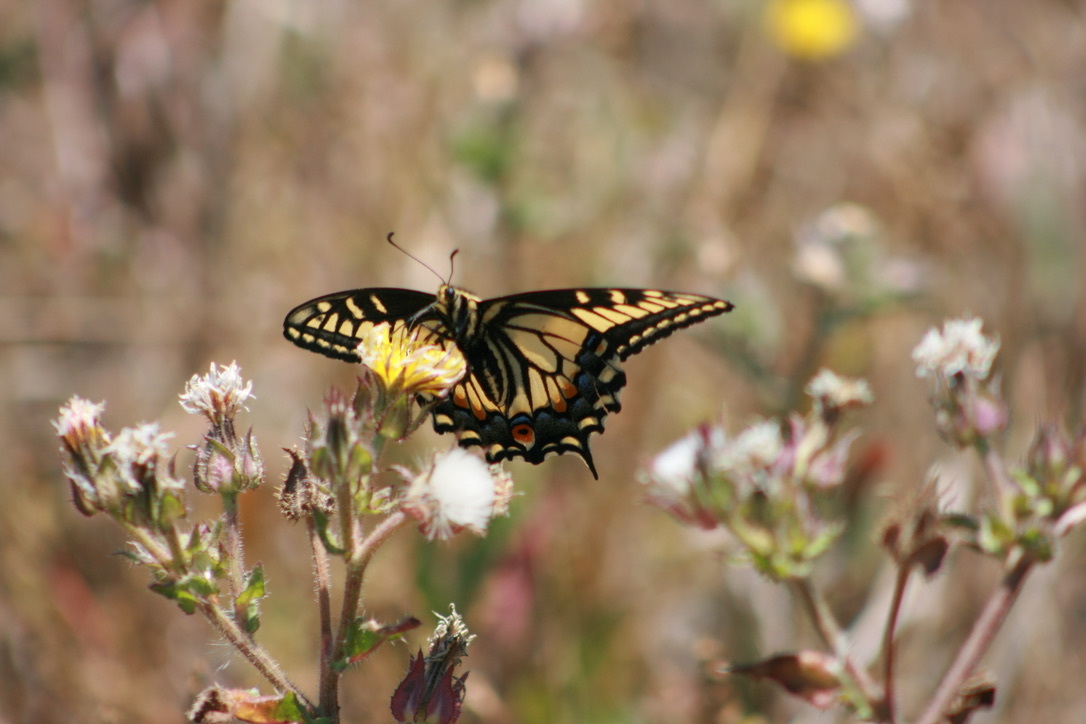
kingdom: Animalia
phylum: Arthropoda
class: Insecta
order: Lepidoptera
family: Papilionidae
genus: Papilio
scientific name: Papilio zelicaon
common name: Anise swallowtail
